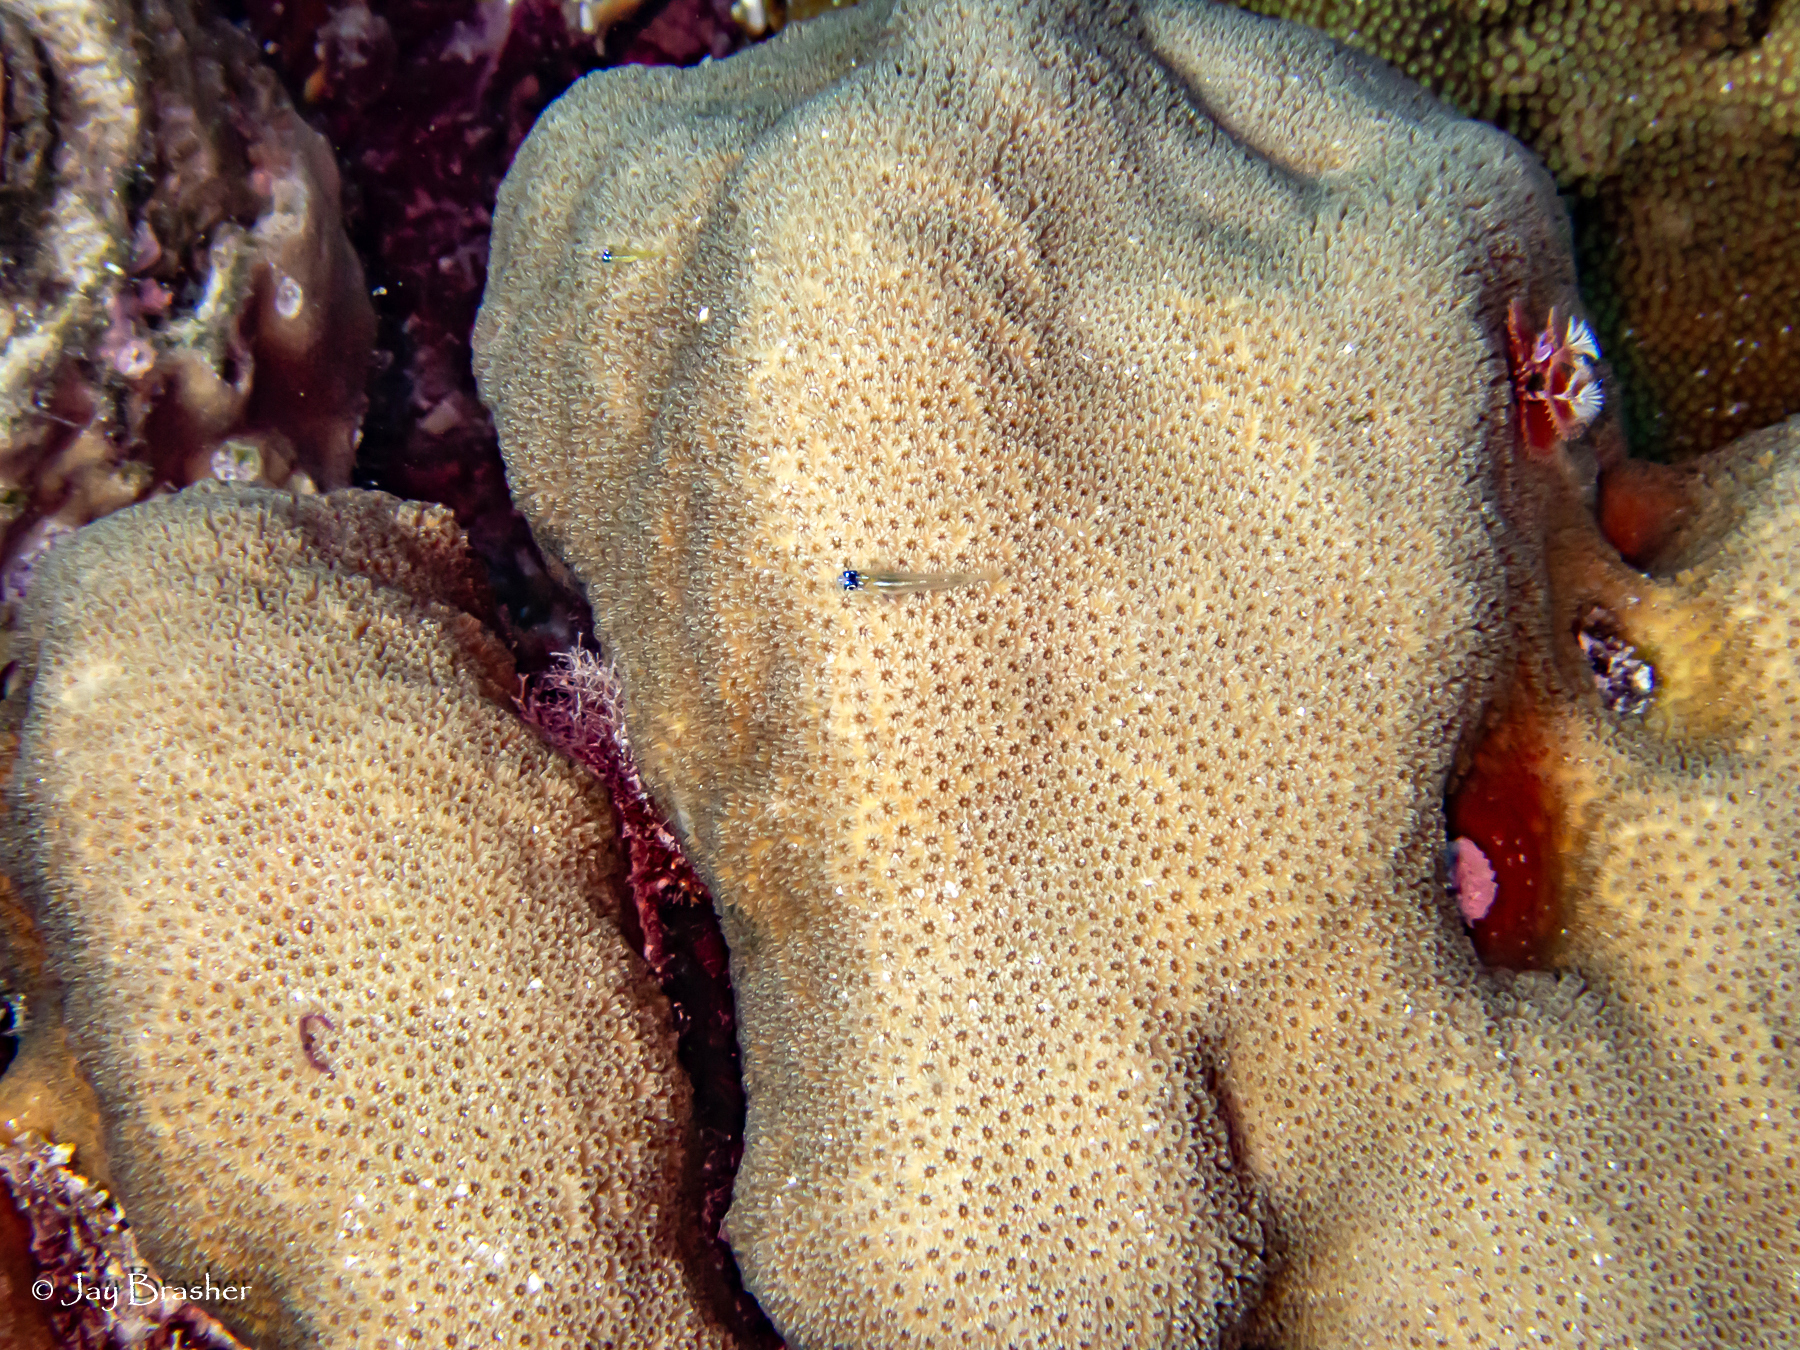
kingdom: Animalia
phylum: Chordata
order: Perciformes
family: Gobiidae
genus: Coryphopterus
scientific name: Coryphopterus lipernes
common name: Peppermint goby
